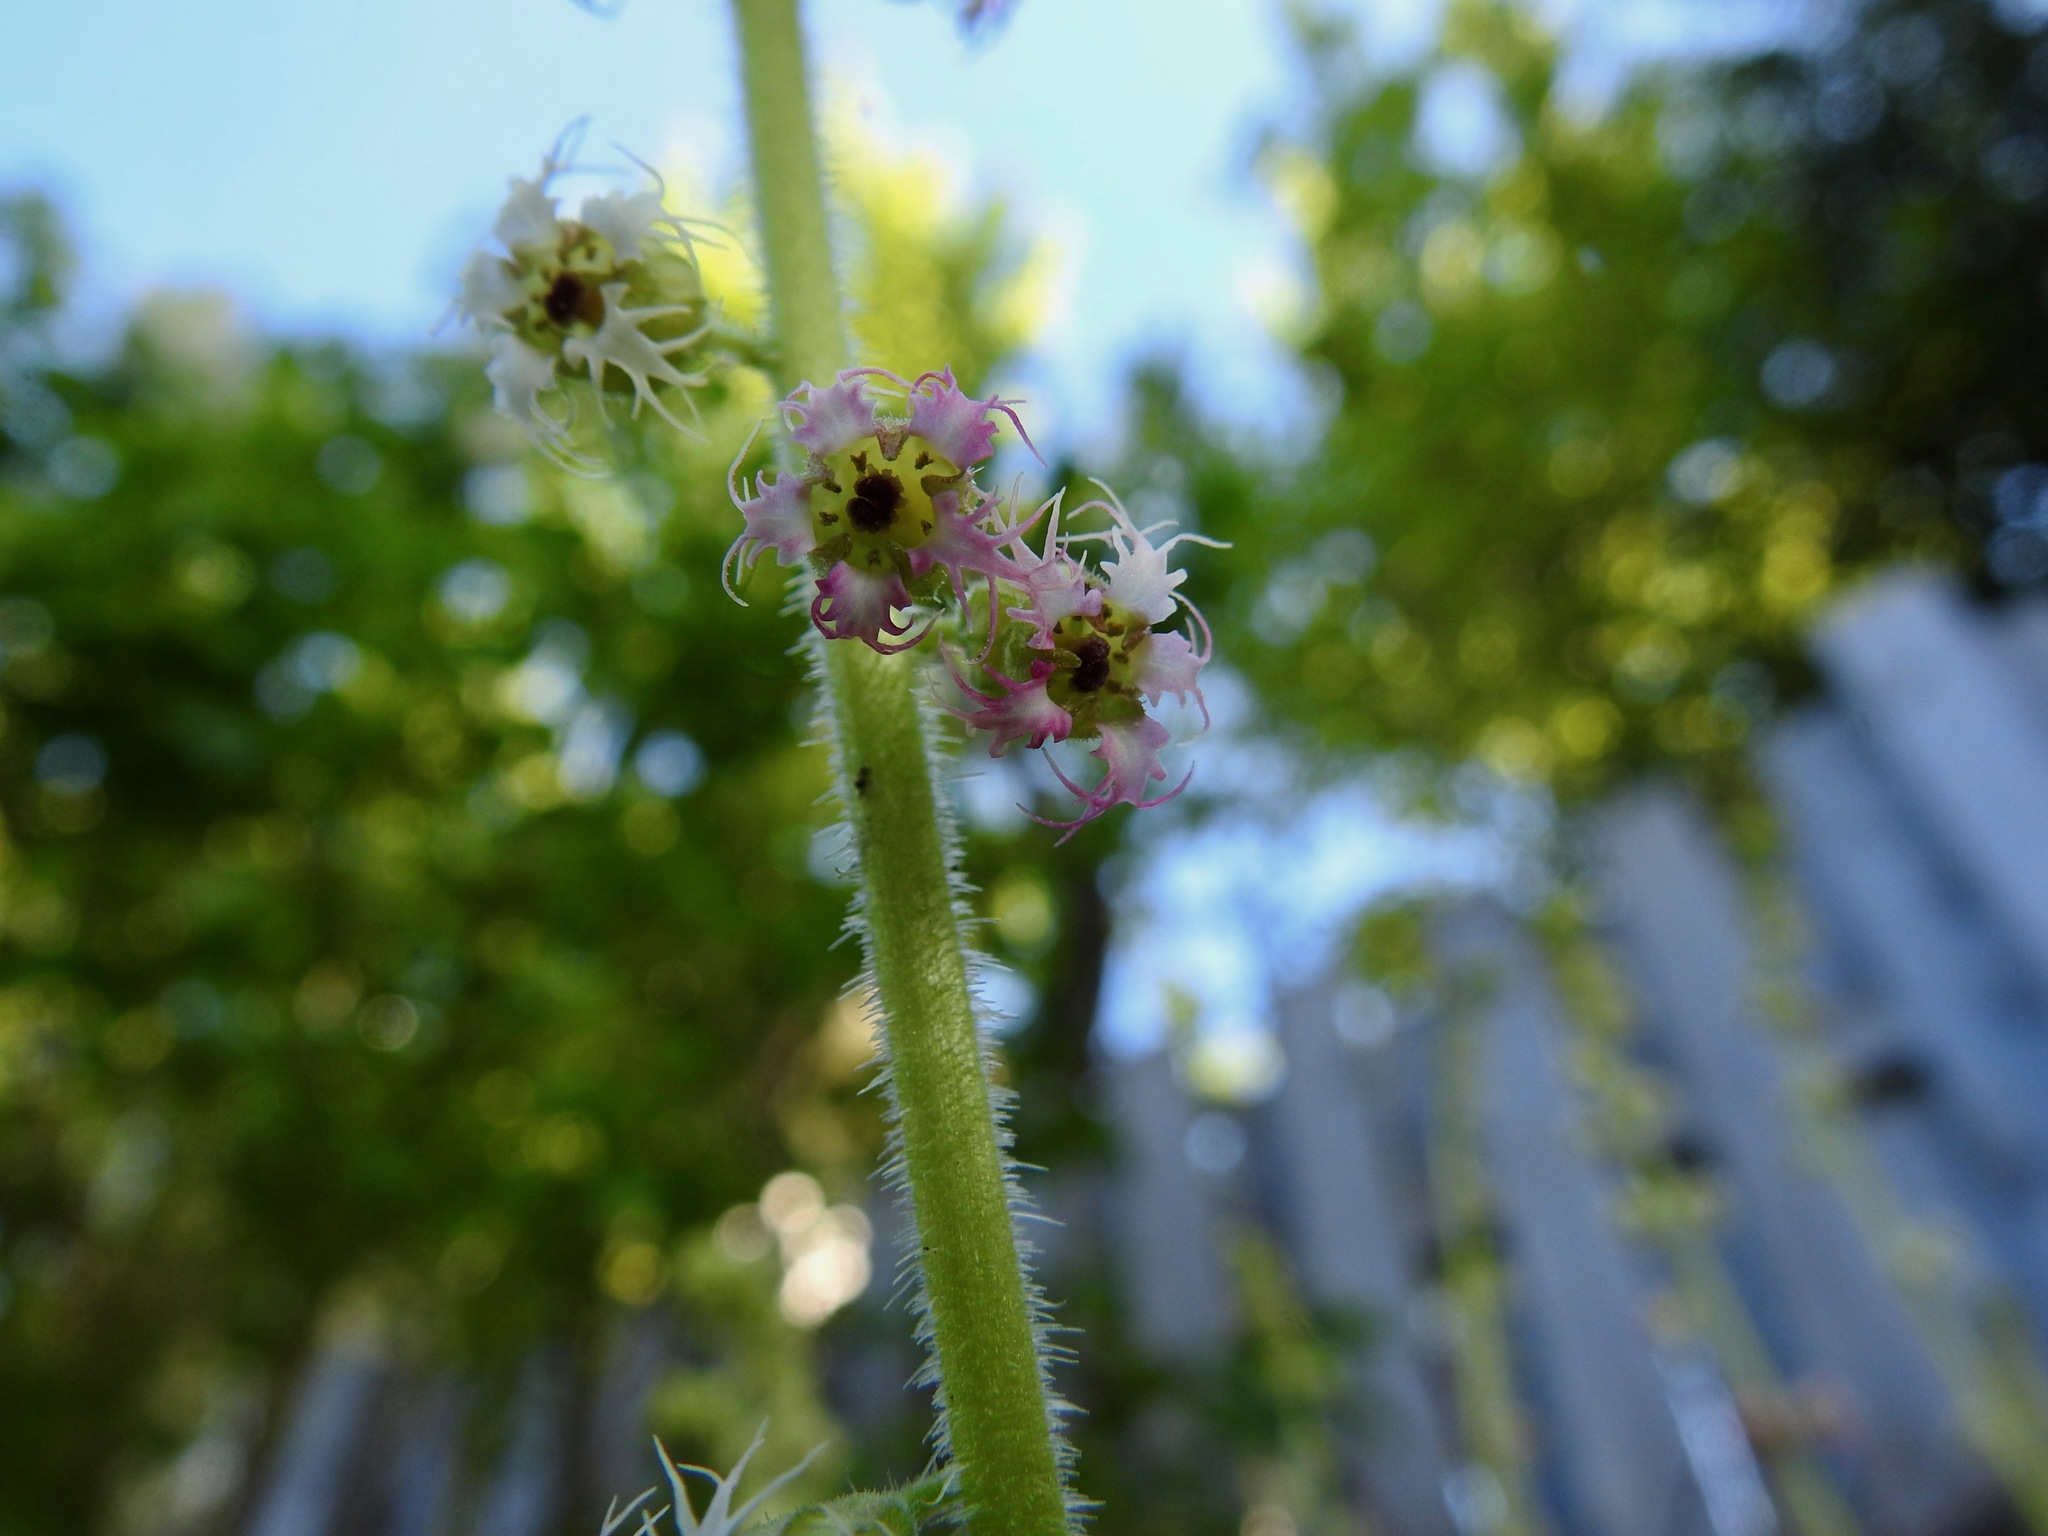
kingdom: Plantae
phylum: Tracheophyta
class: Magnoliopsida
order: Saxifragales
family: Saxifragaceae
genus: Tellima
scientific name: Tellima grandiflora
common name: Fringecups
